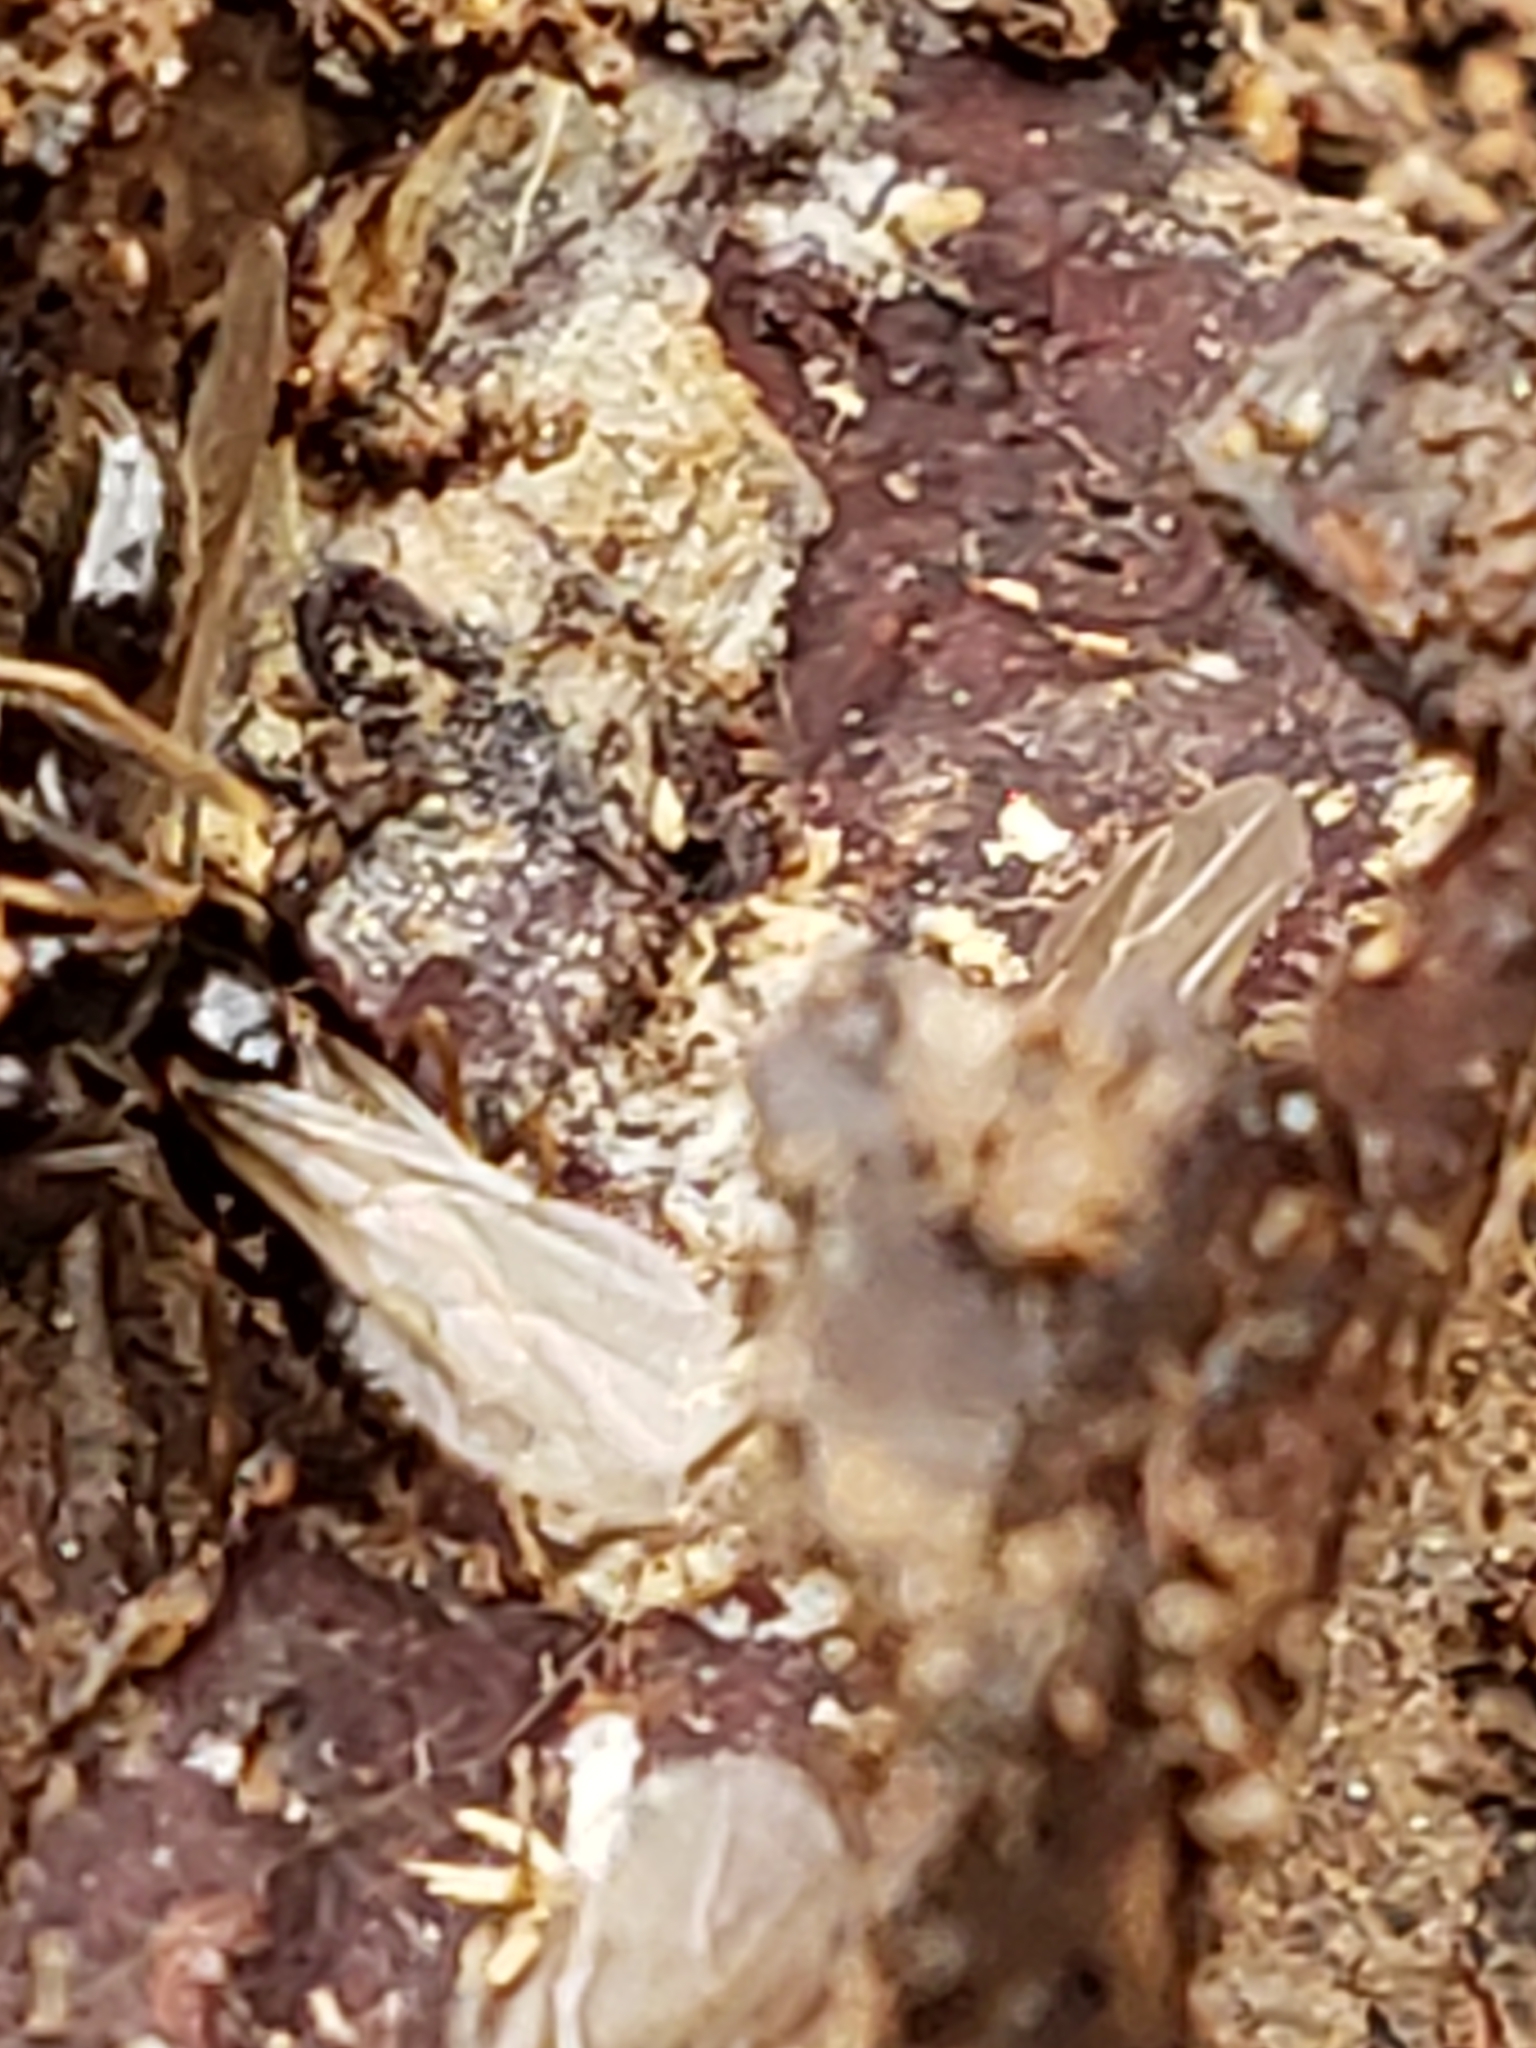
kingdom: Animalia
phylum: Arthropoda
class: Insecta
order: Hymenoptera
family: Formicidae
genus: Prenolepis
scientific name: Prenolepis imparis
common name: Small honey ant
